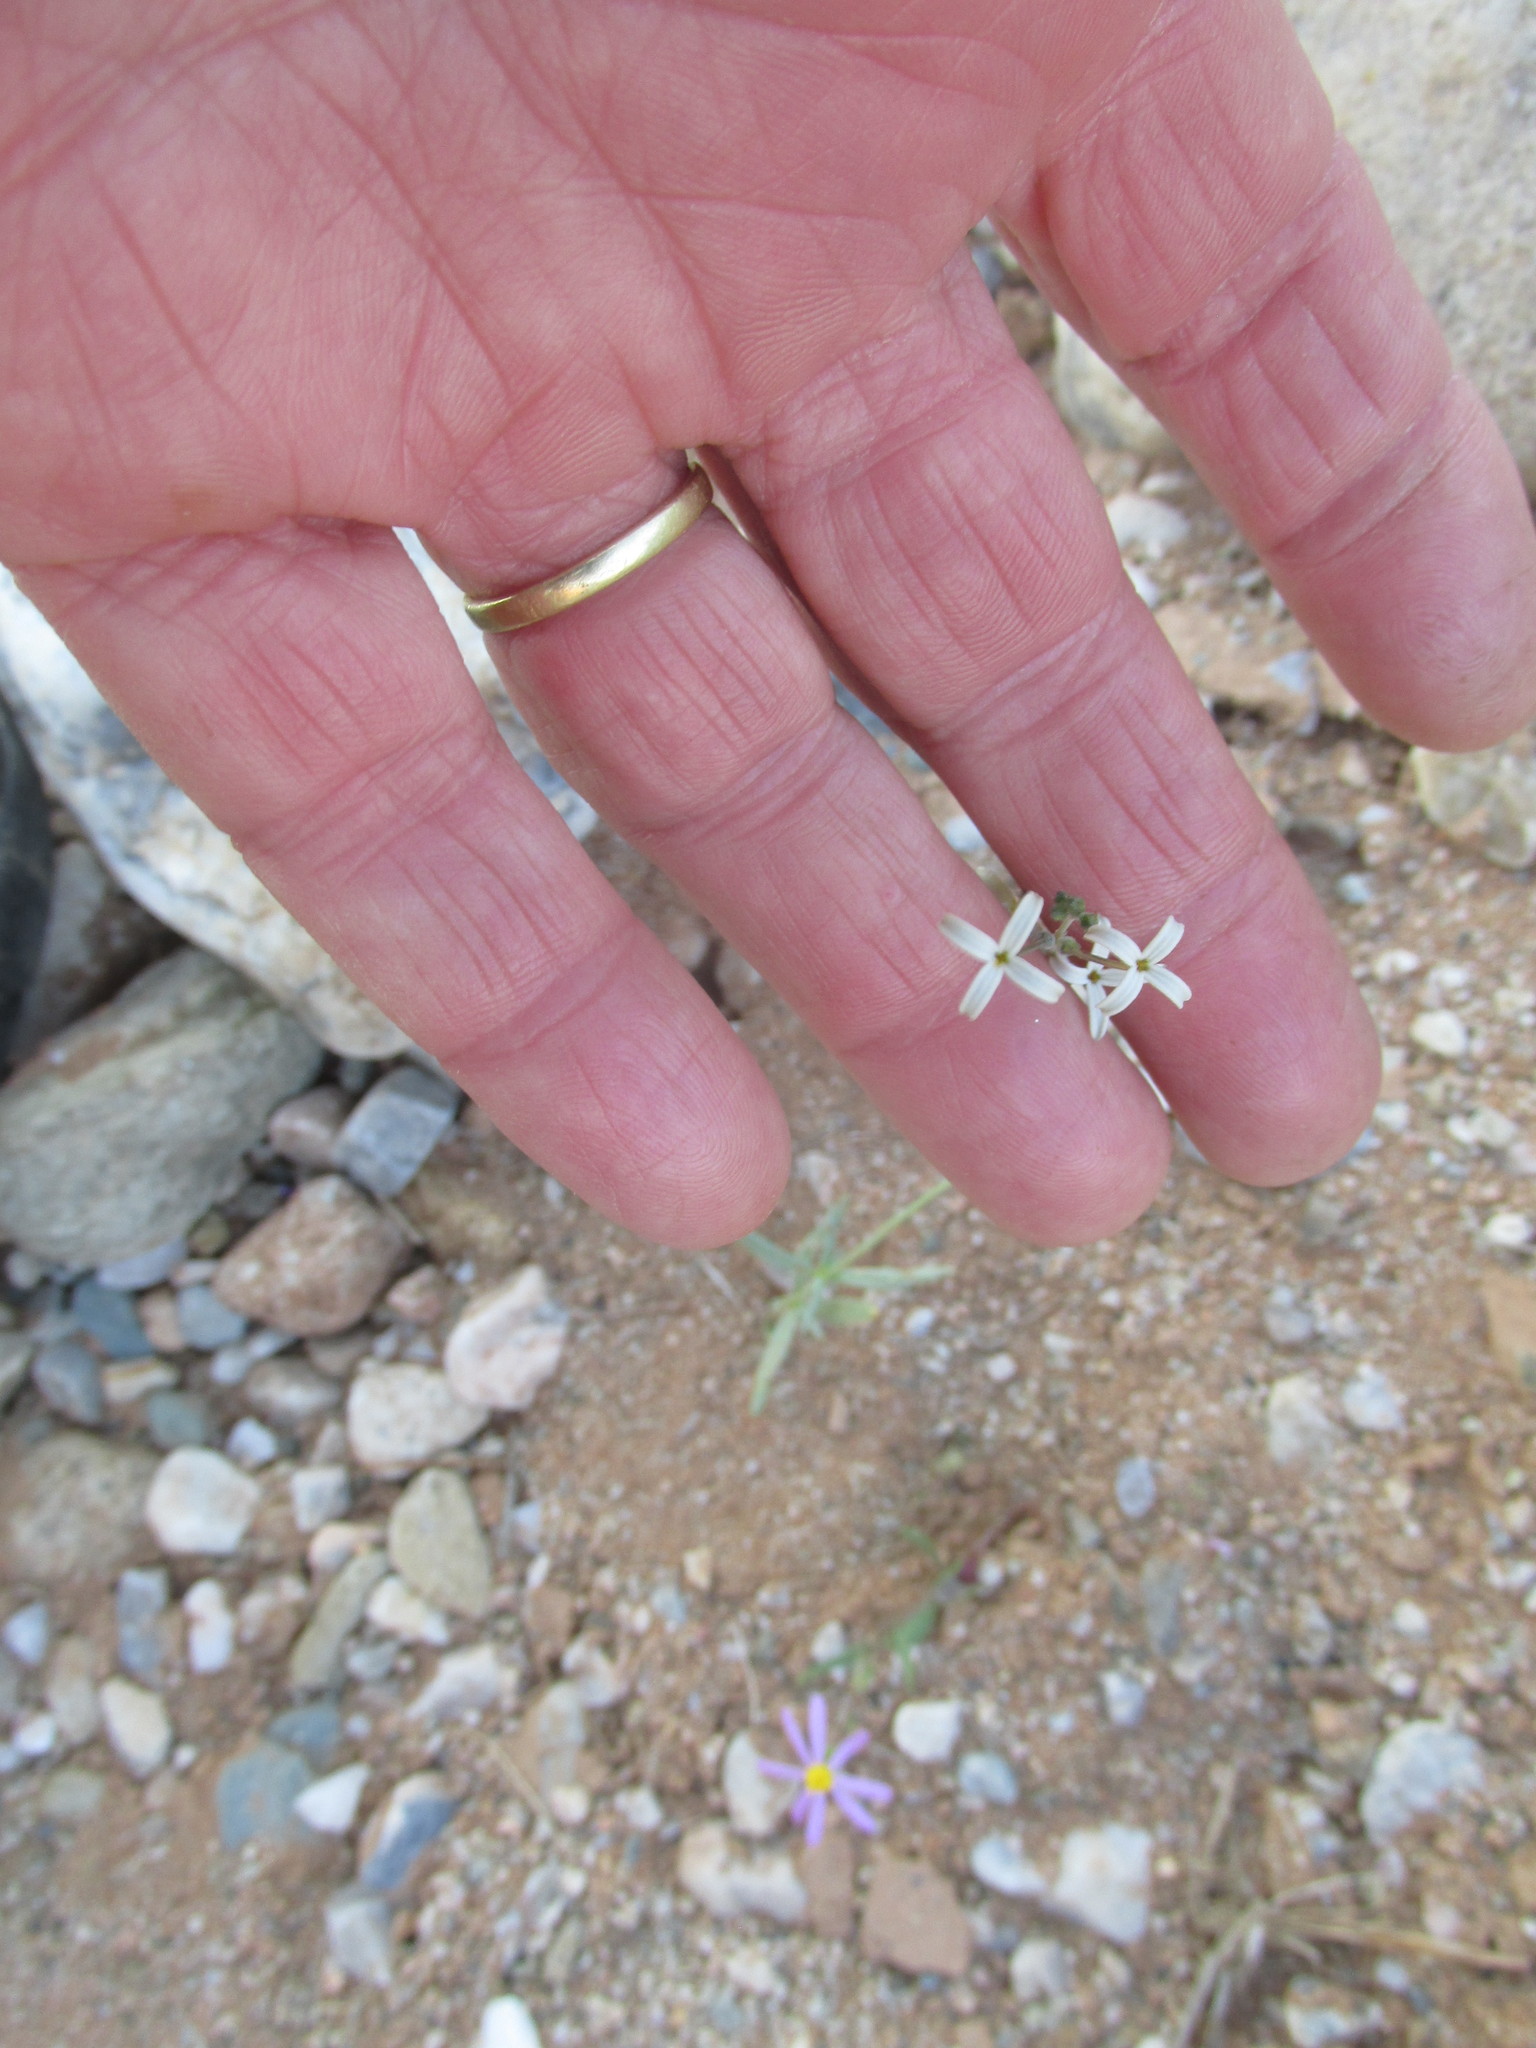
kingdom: Plantae
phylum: Tracheophyta
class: Magnoliopsida
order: Gentianales
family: Rubiaceae
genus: Kohautia
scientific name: Kohautia caespitosa
